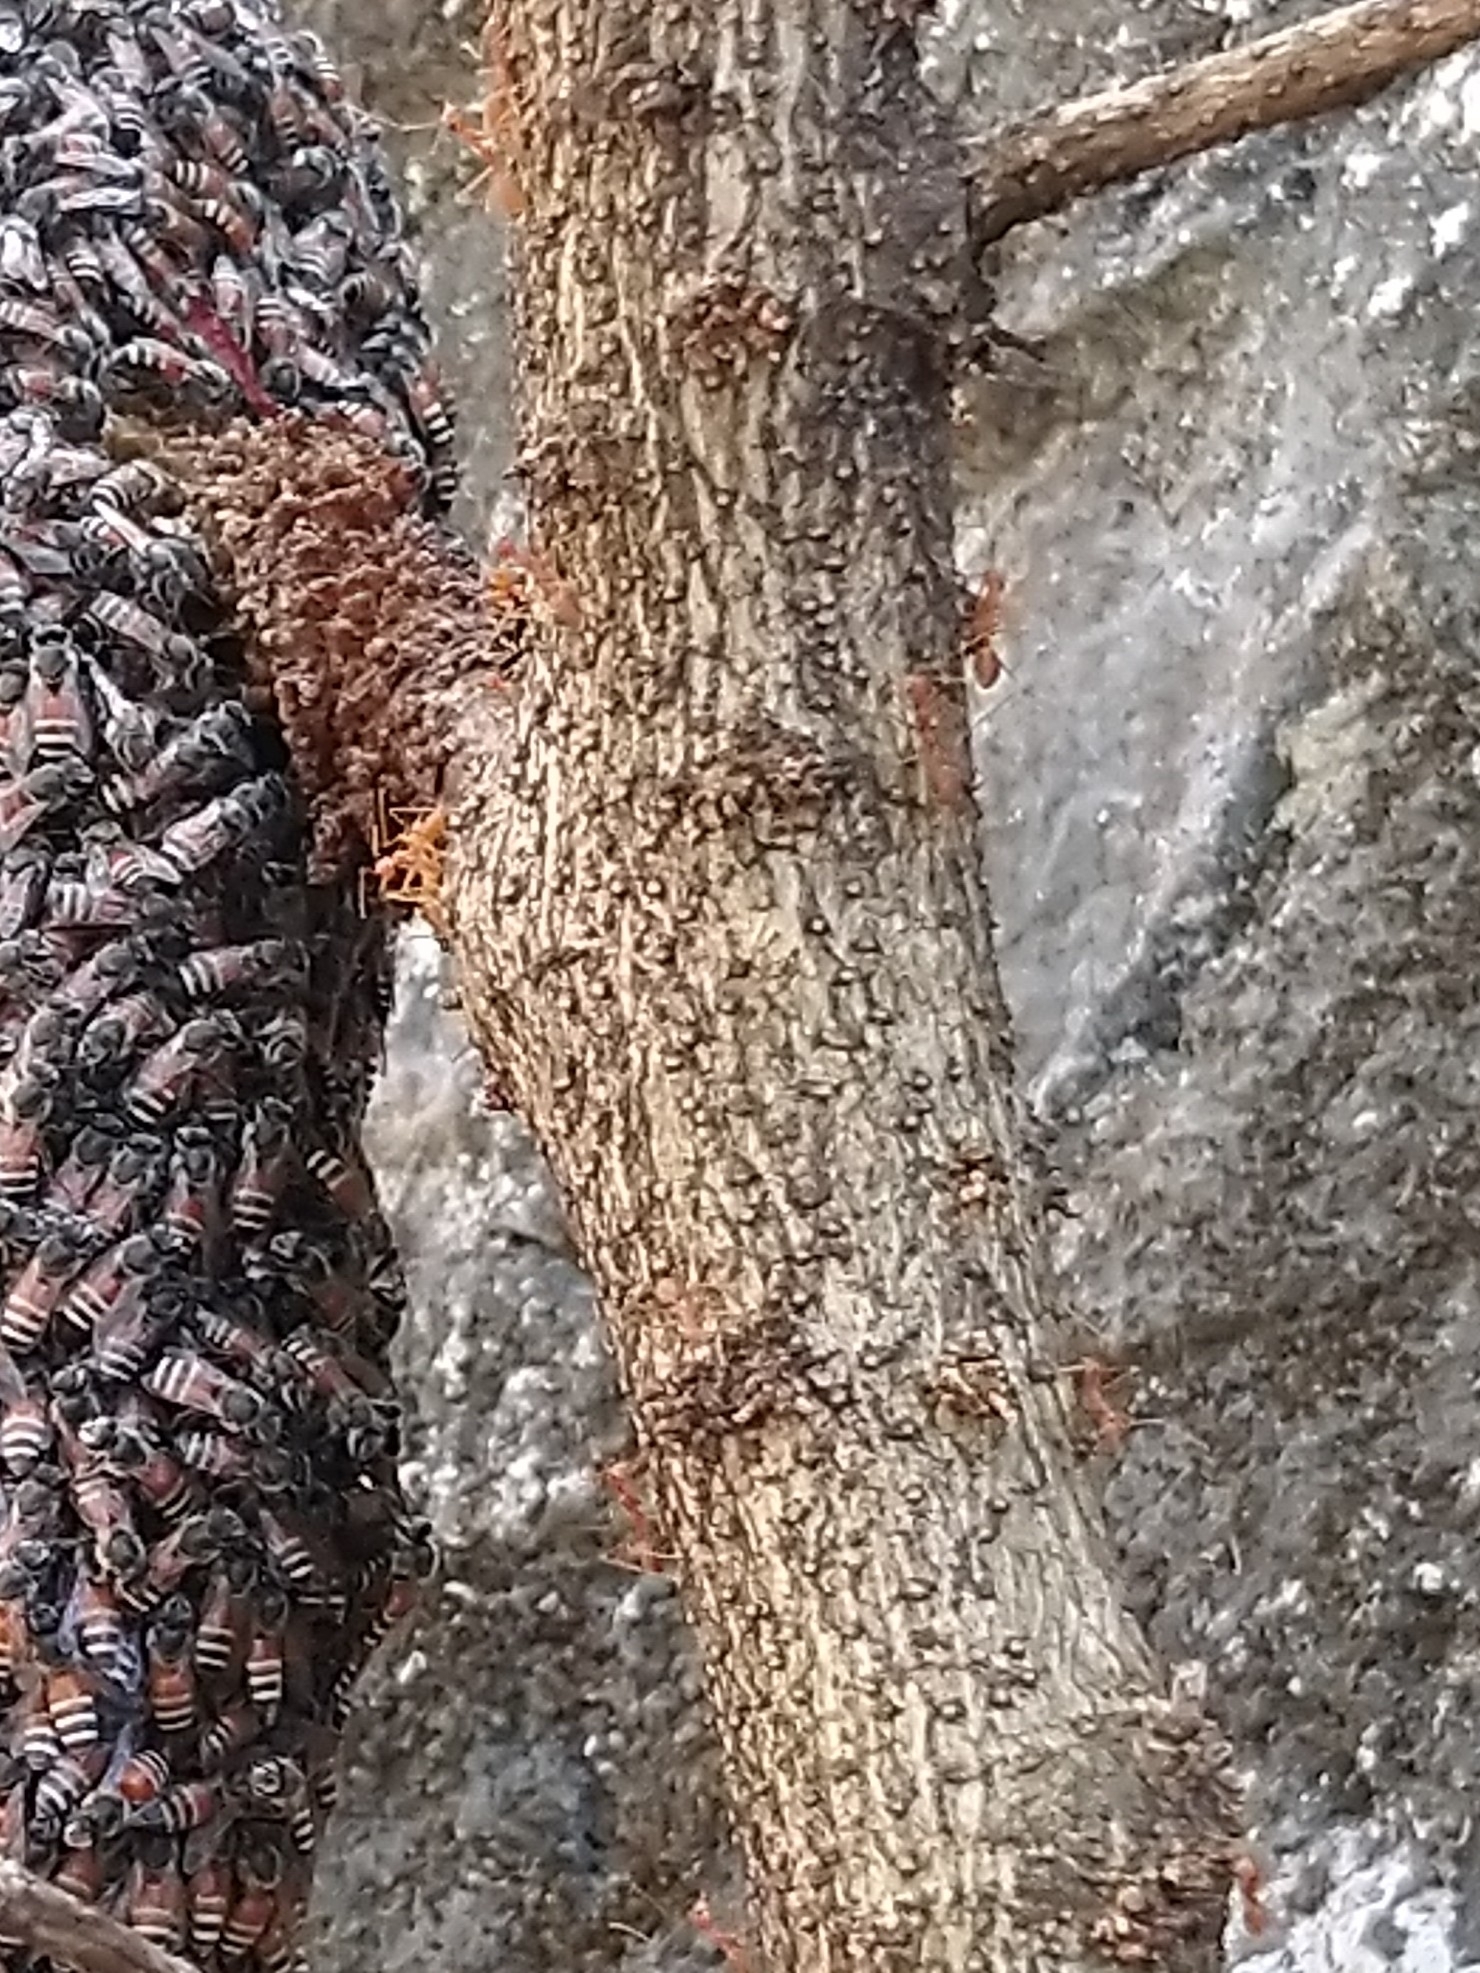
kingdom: Animalia
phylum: Arthropoda
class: Insecta
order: Hymenoptera
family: Formicidae
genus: Oecophylla
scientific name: Oecophylla smaragdina
